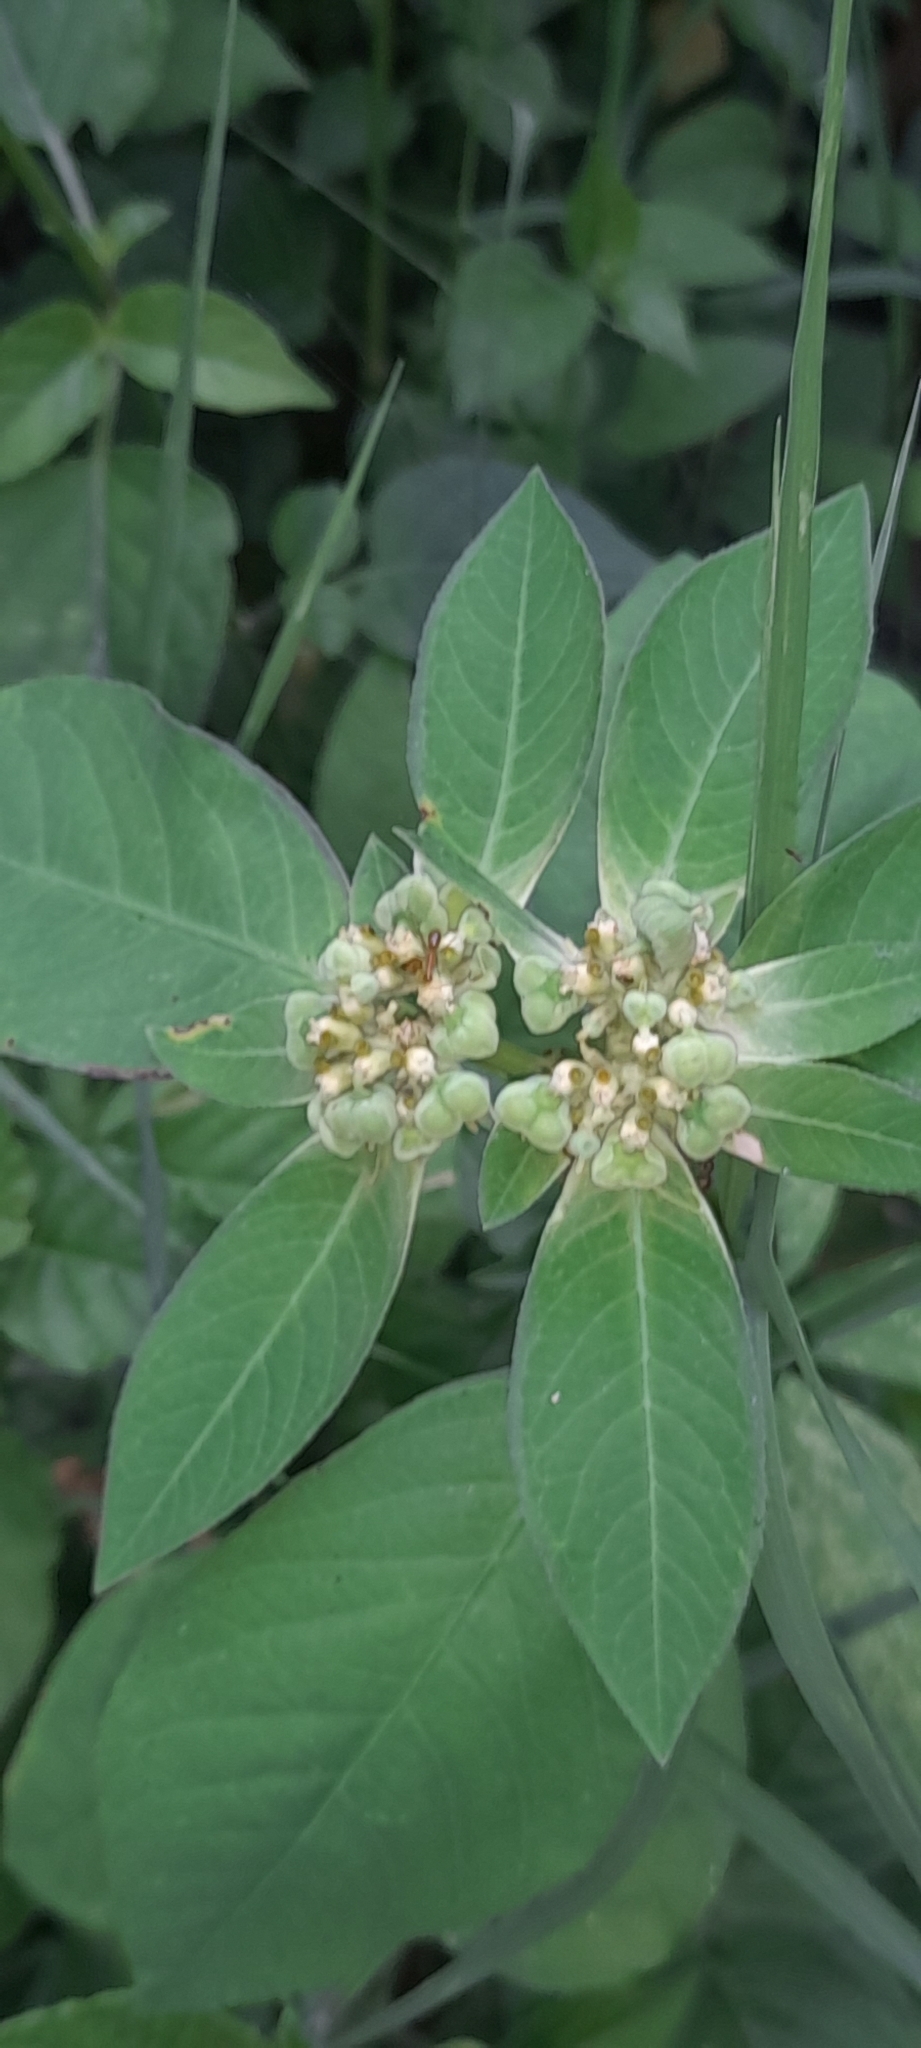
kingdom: Plantae
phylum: Tracheophyta
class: Magnoliopsida
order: Malpighiales
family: Euphorbiaceae
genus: Euphorbia
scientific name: Euphorbia heterophylla
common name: Mexican fireplant
